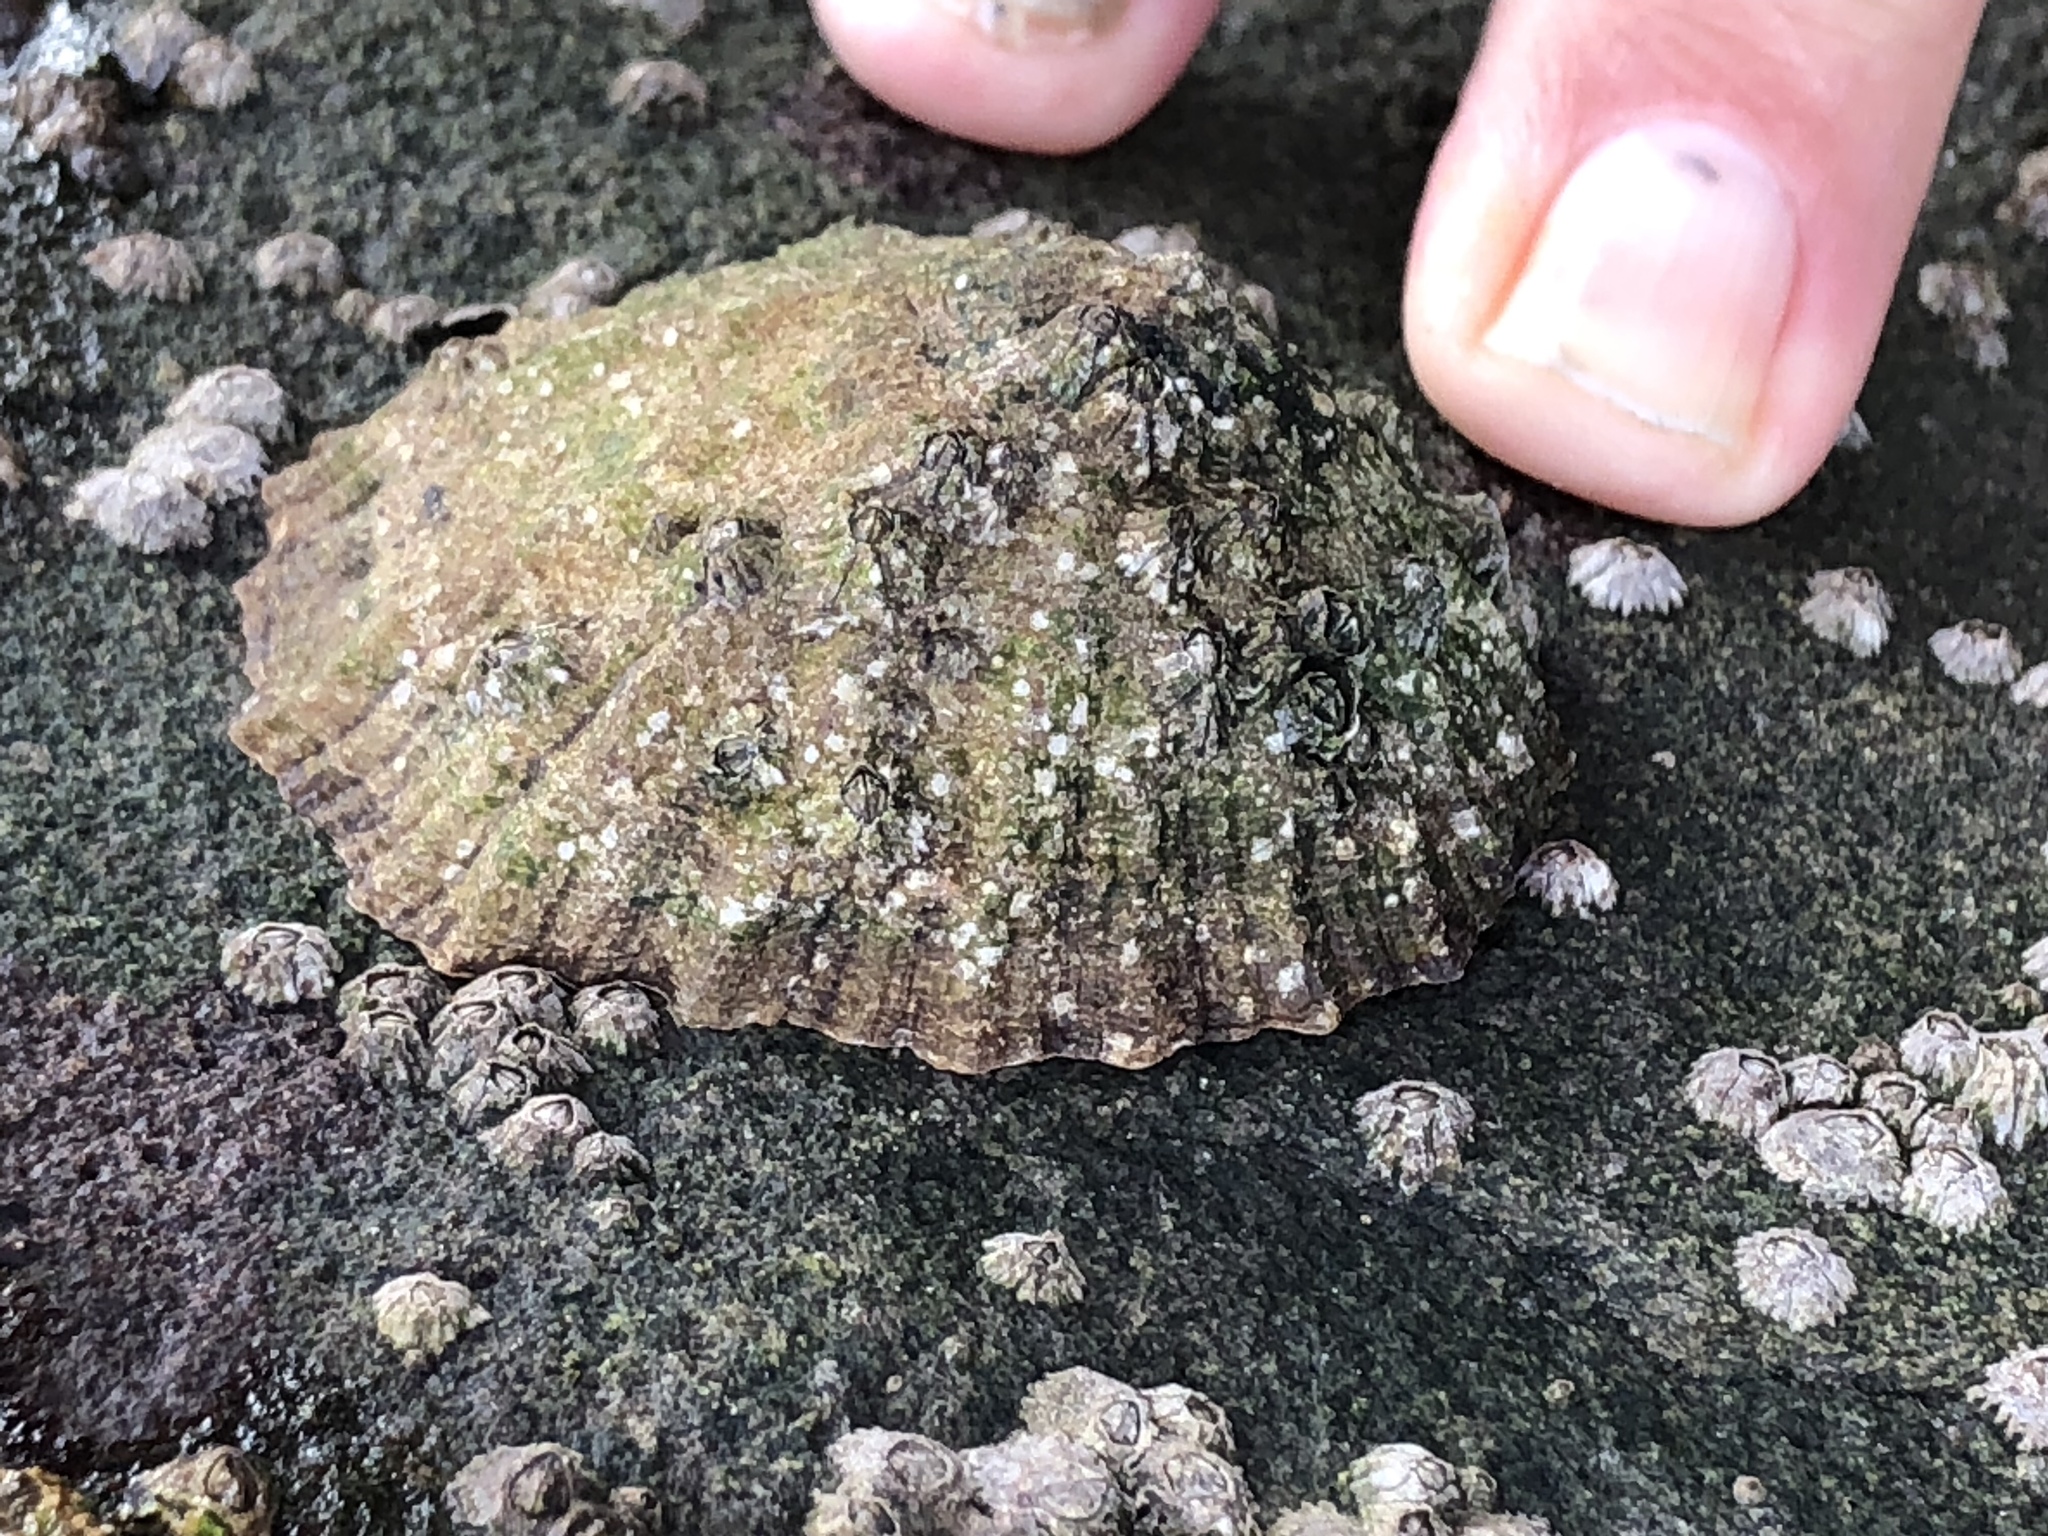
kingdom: Animalia
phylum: Mollusca
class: Gastropoda
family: Patellidae
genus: Patella
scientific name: Patella vulgata
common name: Common limpet
